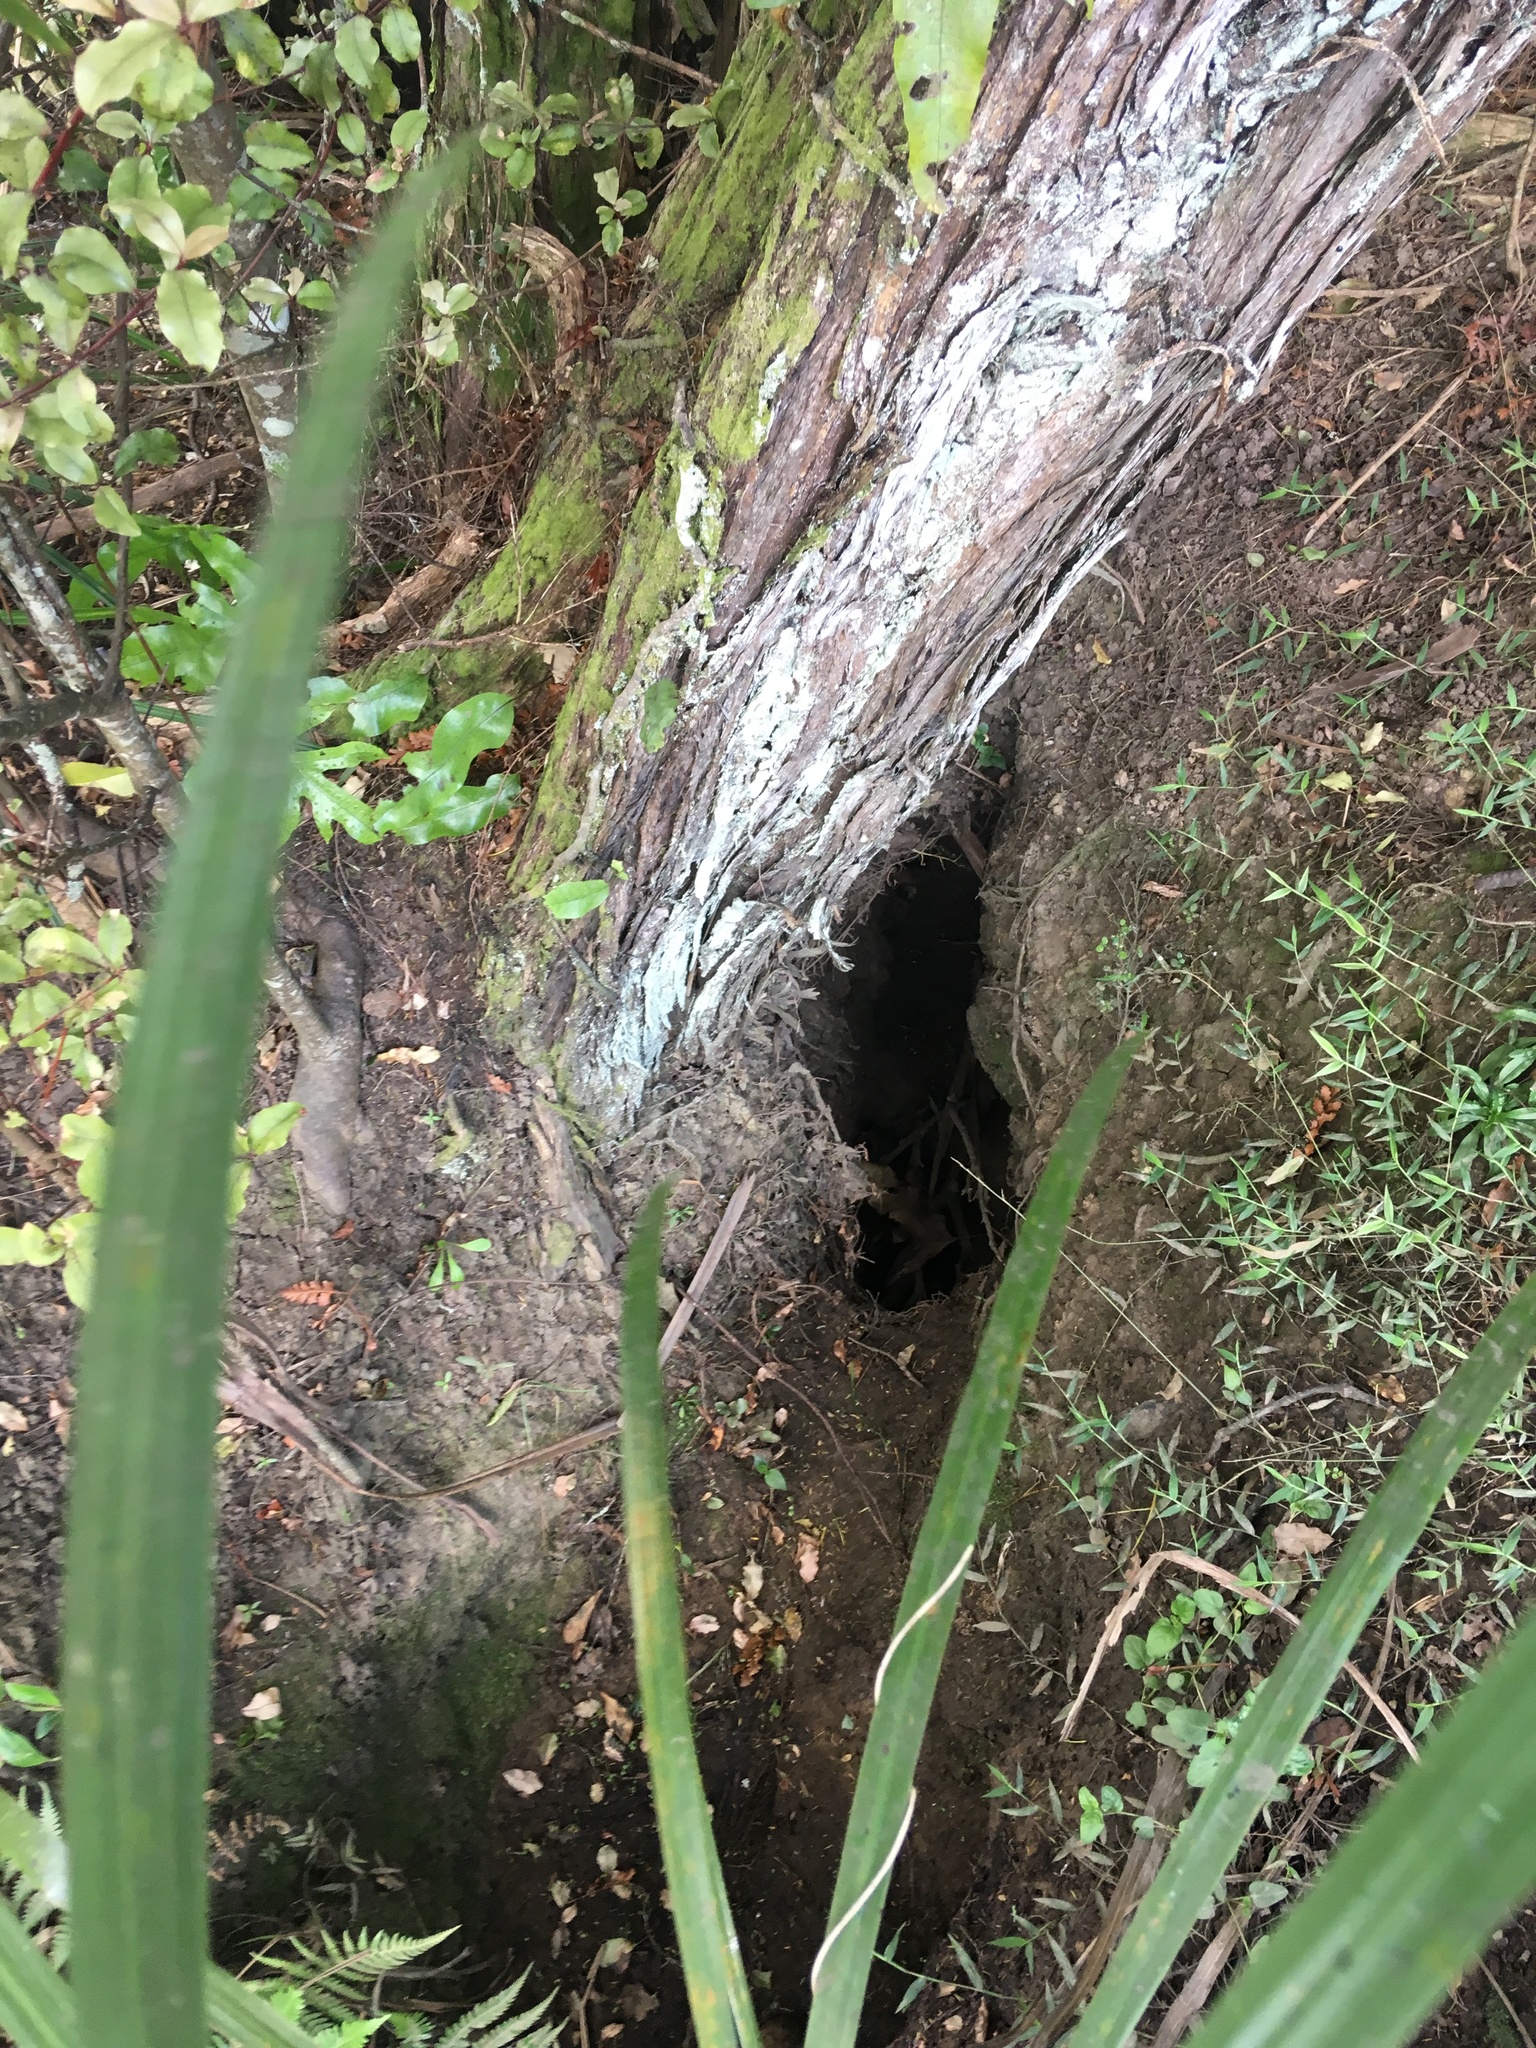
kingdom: Plantae
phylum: Tracheophyta
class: Liliopsida
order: Poales
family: Poaceae
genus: Oplismenus
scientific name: Oplismenus hirtellus
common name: Basketgrass
